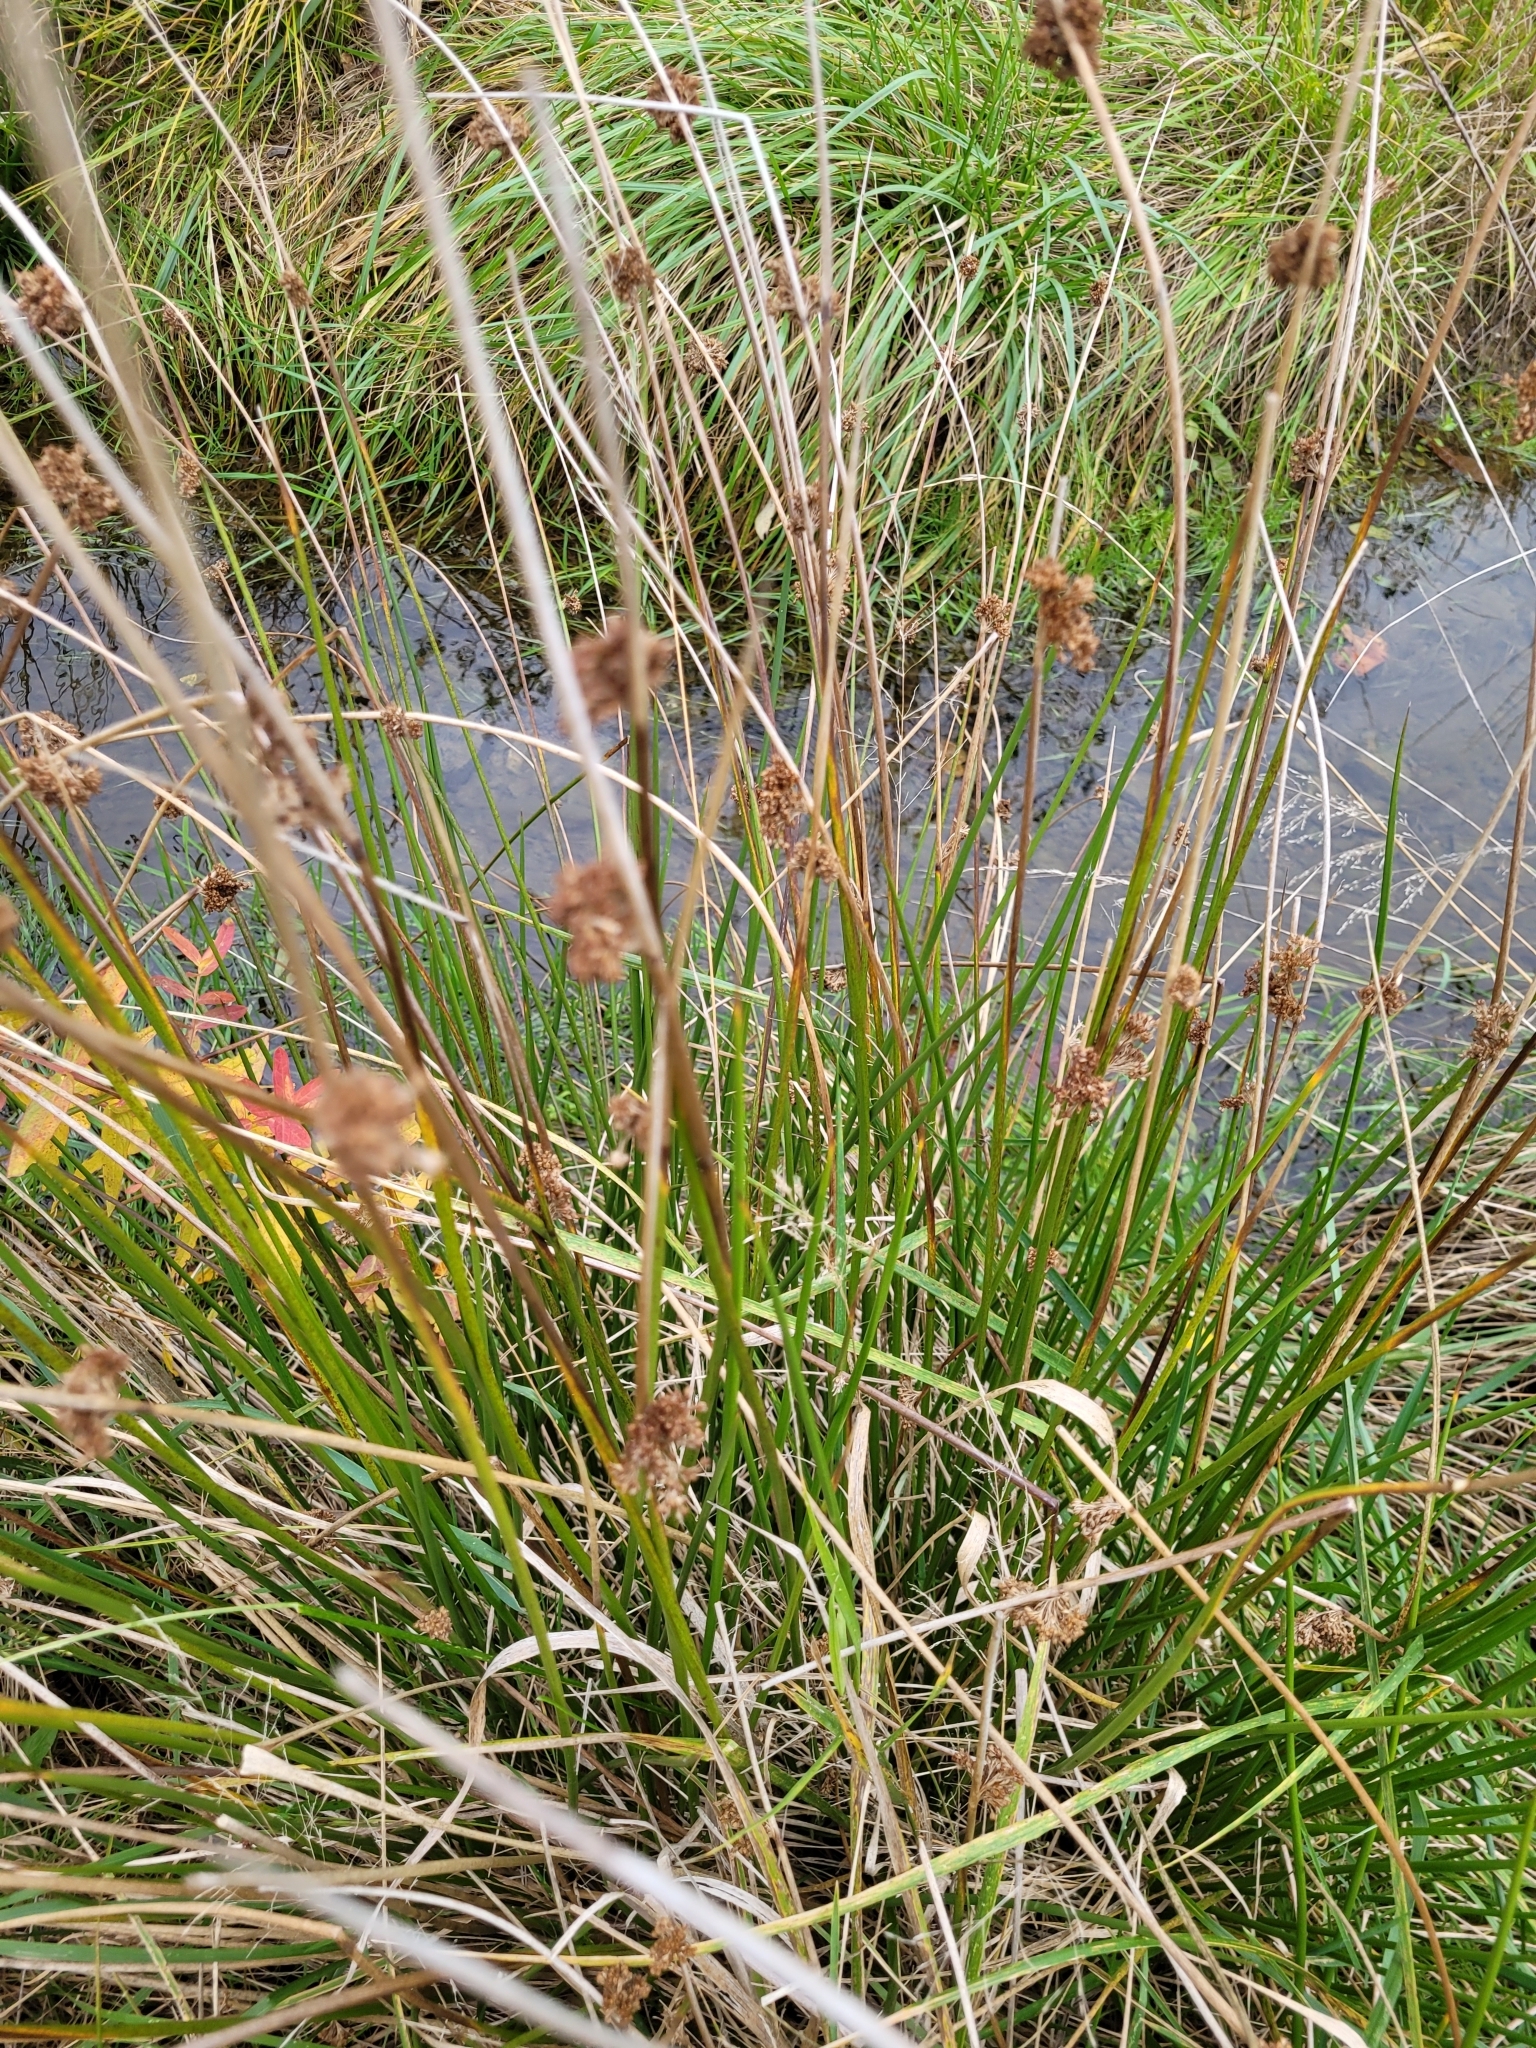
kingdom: Plantae
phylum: Tracheophyta
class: Liliopsida
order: Poales
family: Juncaceae
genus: Juncus
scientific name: Juncus effusus
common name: Soft rush
